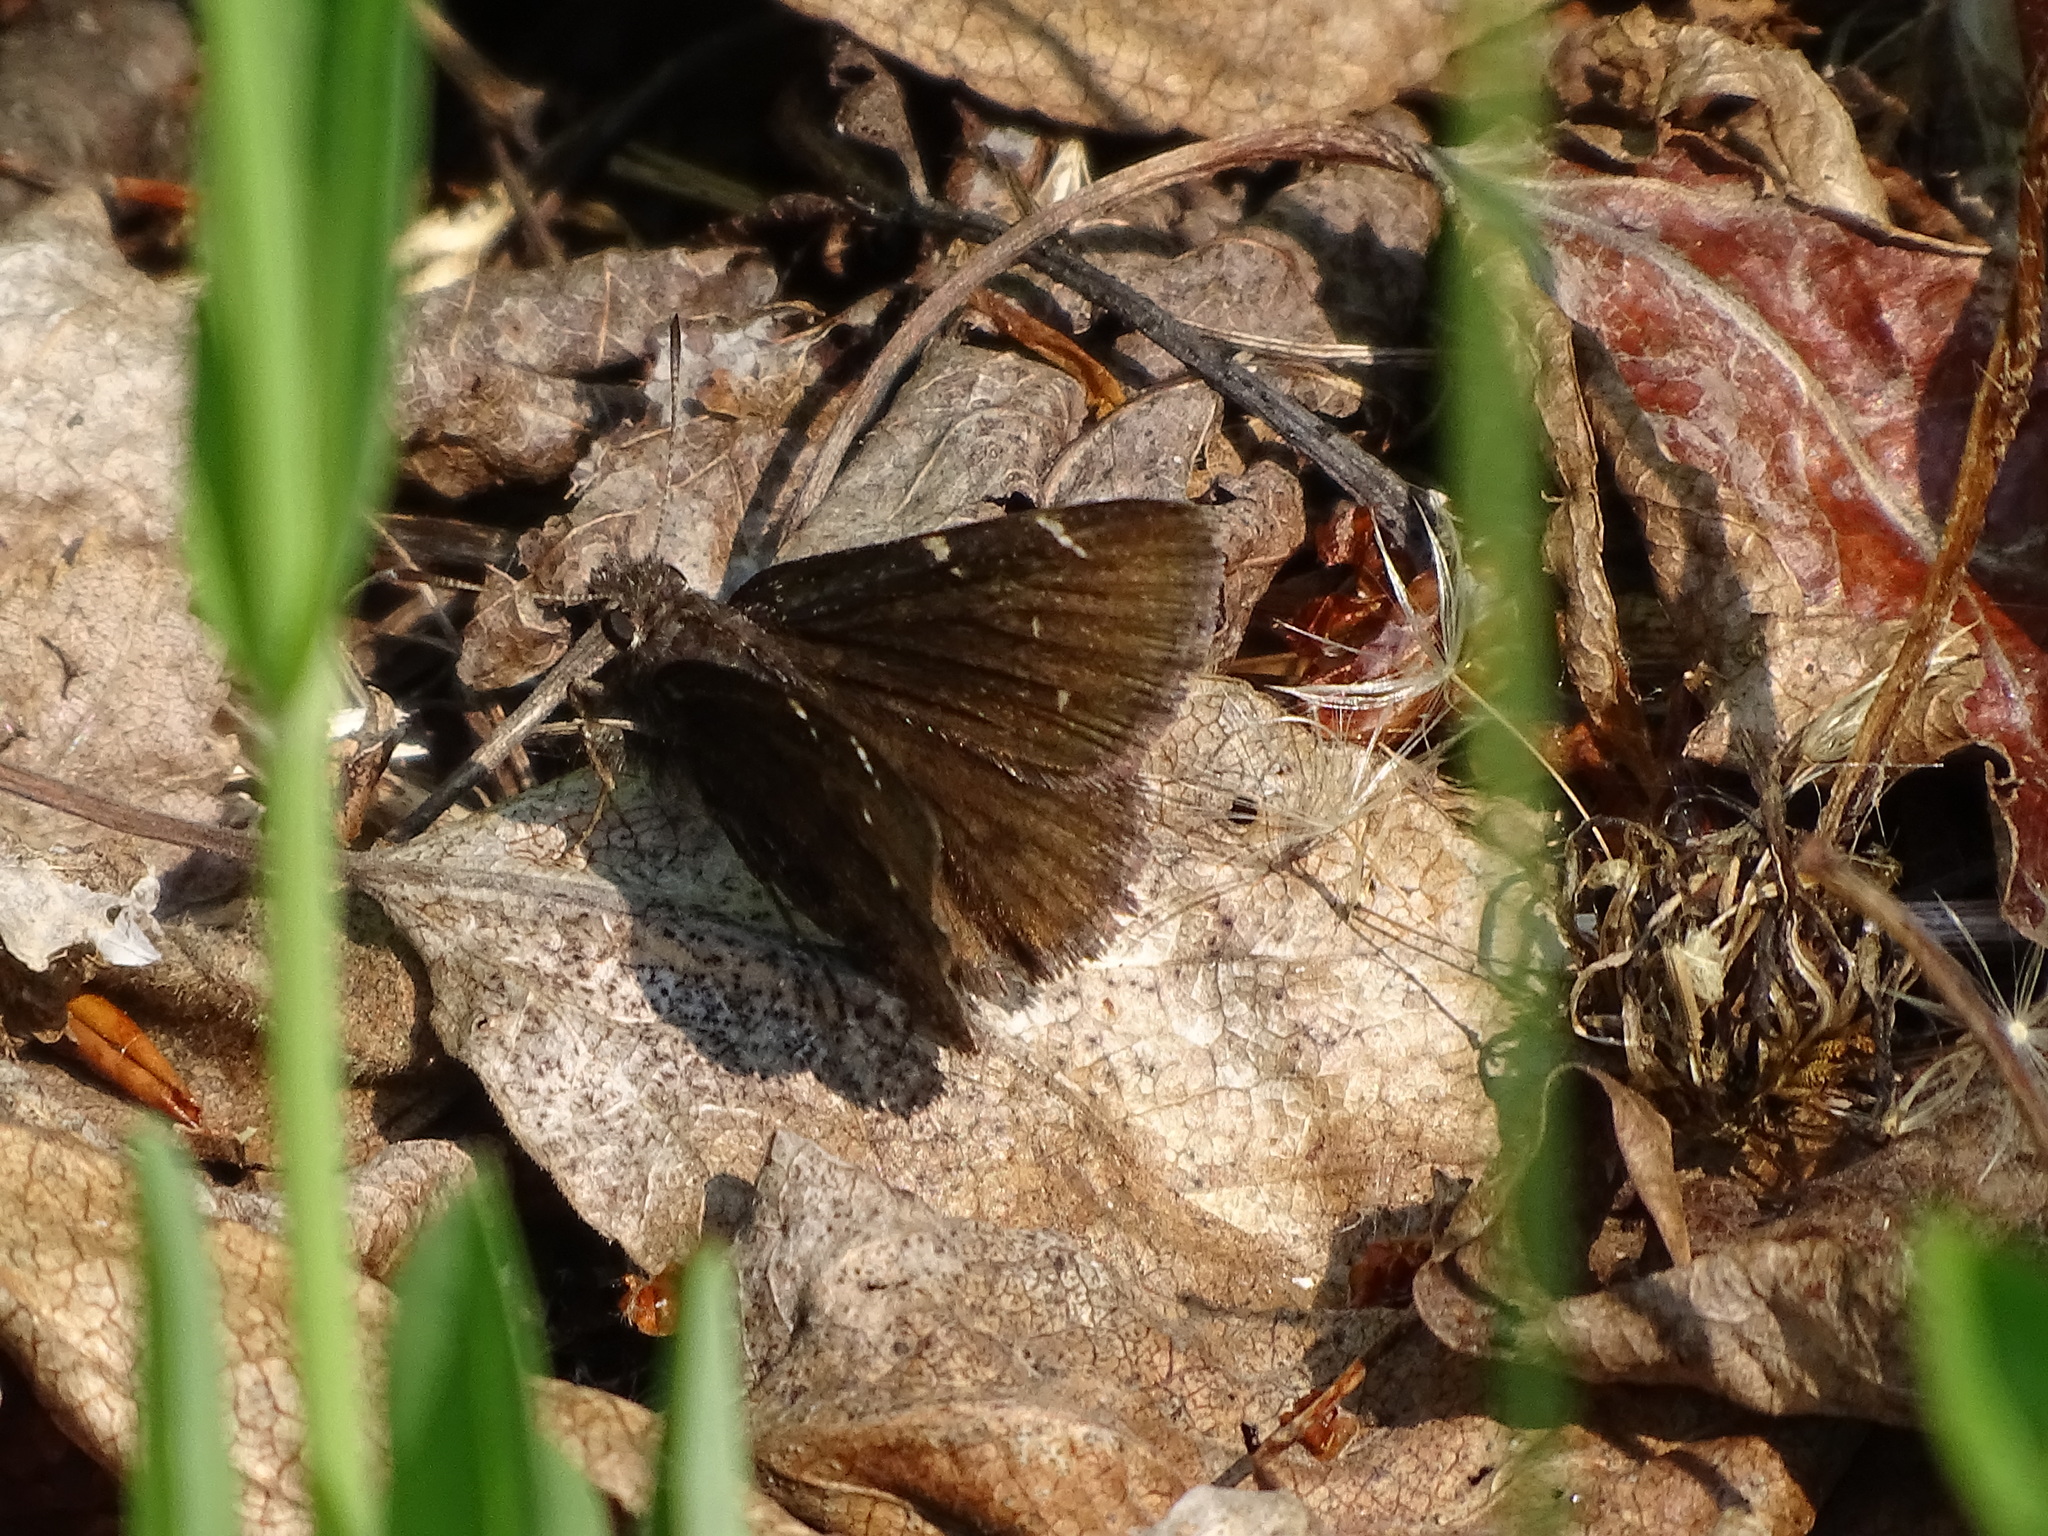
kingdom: Animalia
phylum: Arthropoda
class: Insecta
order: Lepidoptera
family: Hesperiidae
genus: Thorybes
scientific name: Thorybes pylades
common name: Northern cloudywing
